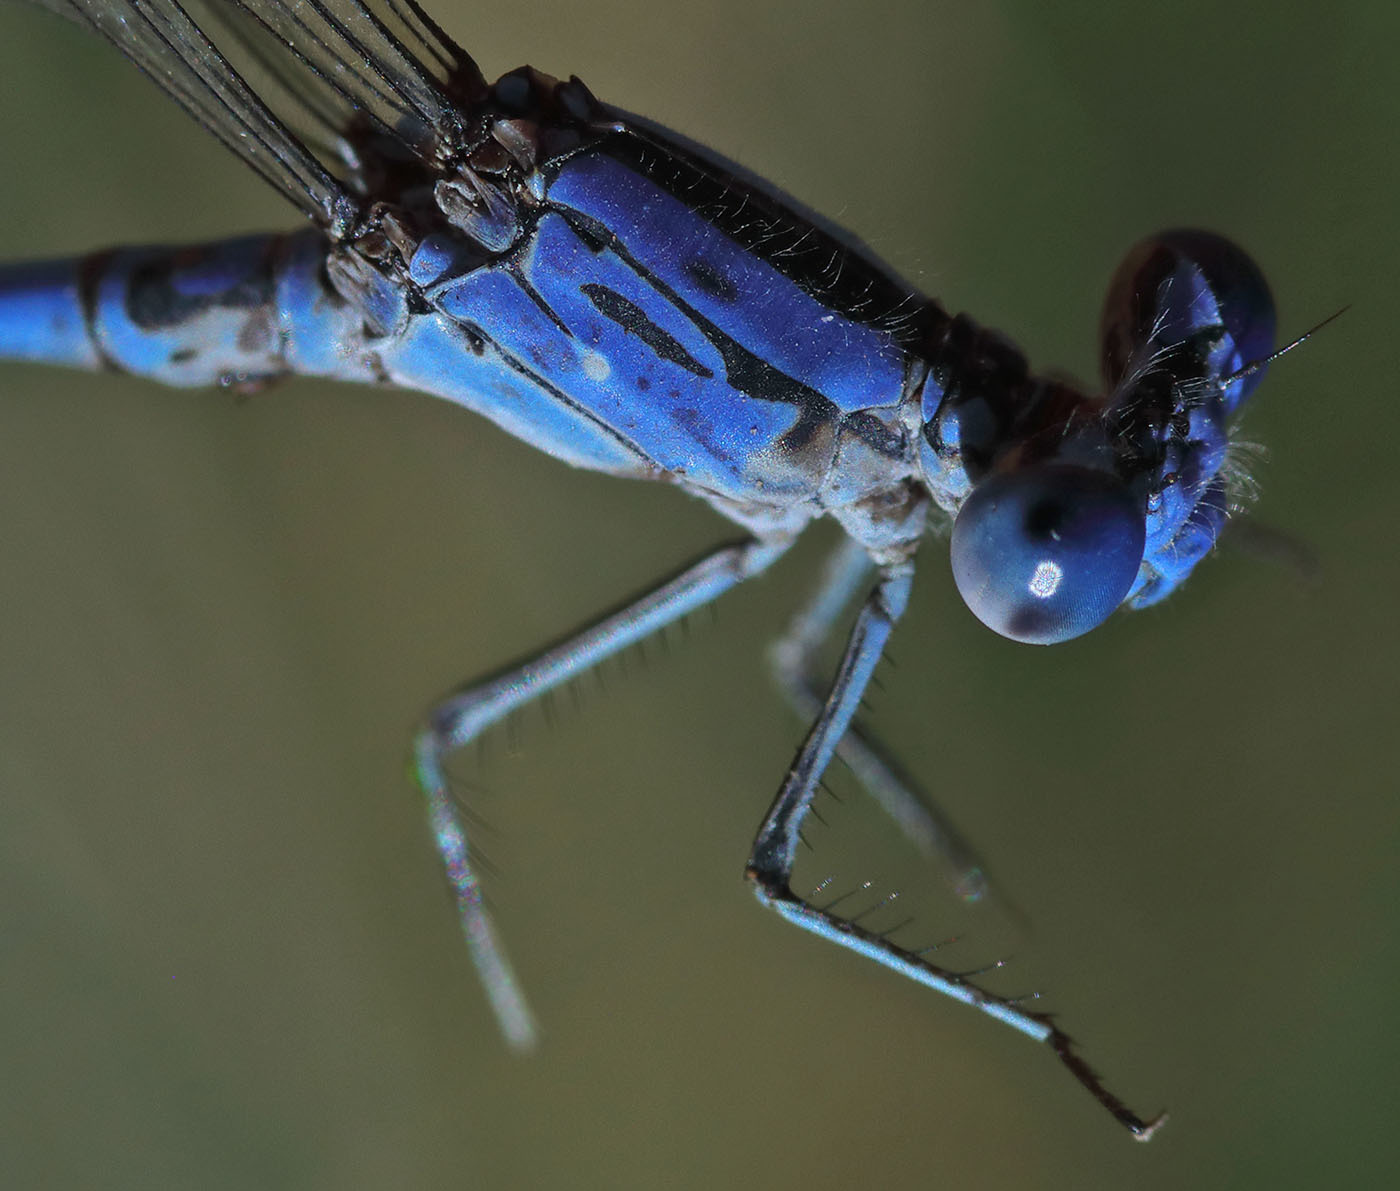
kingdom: Animalia
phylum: Arthropoda
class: Insecta
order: Odonata
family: Coenagrionidae
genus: Argia
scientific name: Argia agrioides
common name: California dancer
